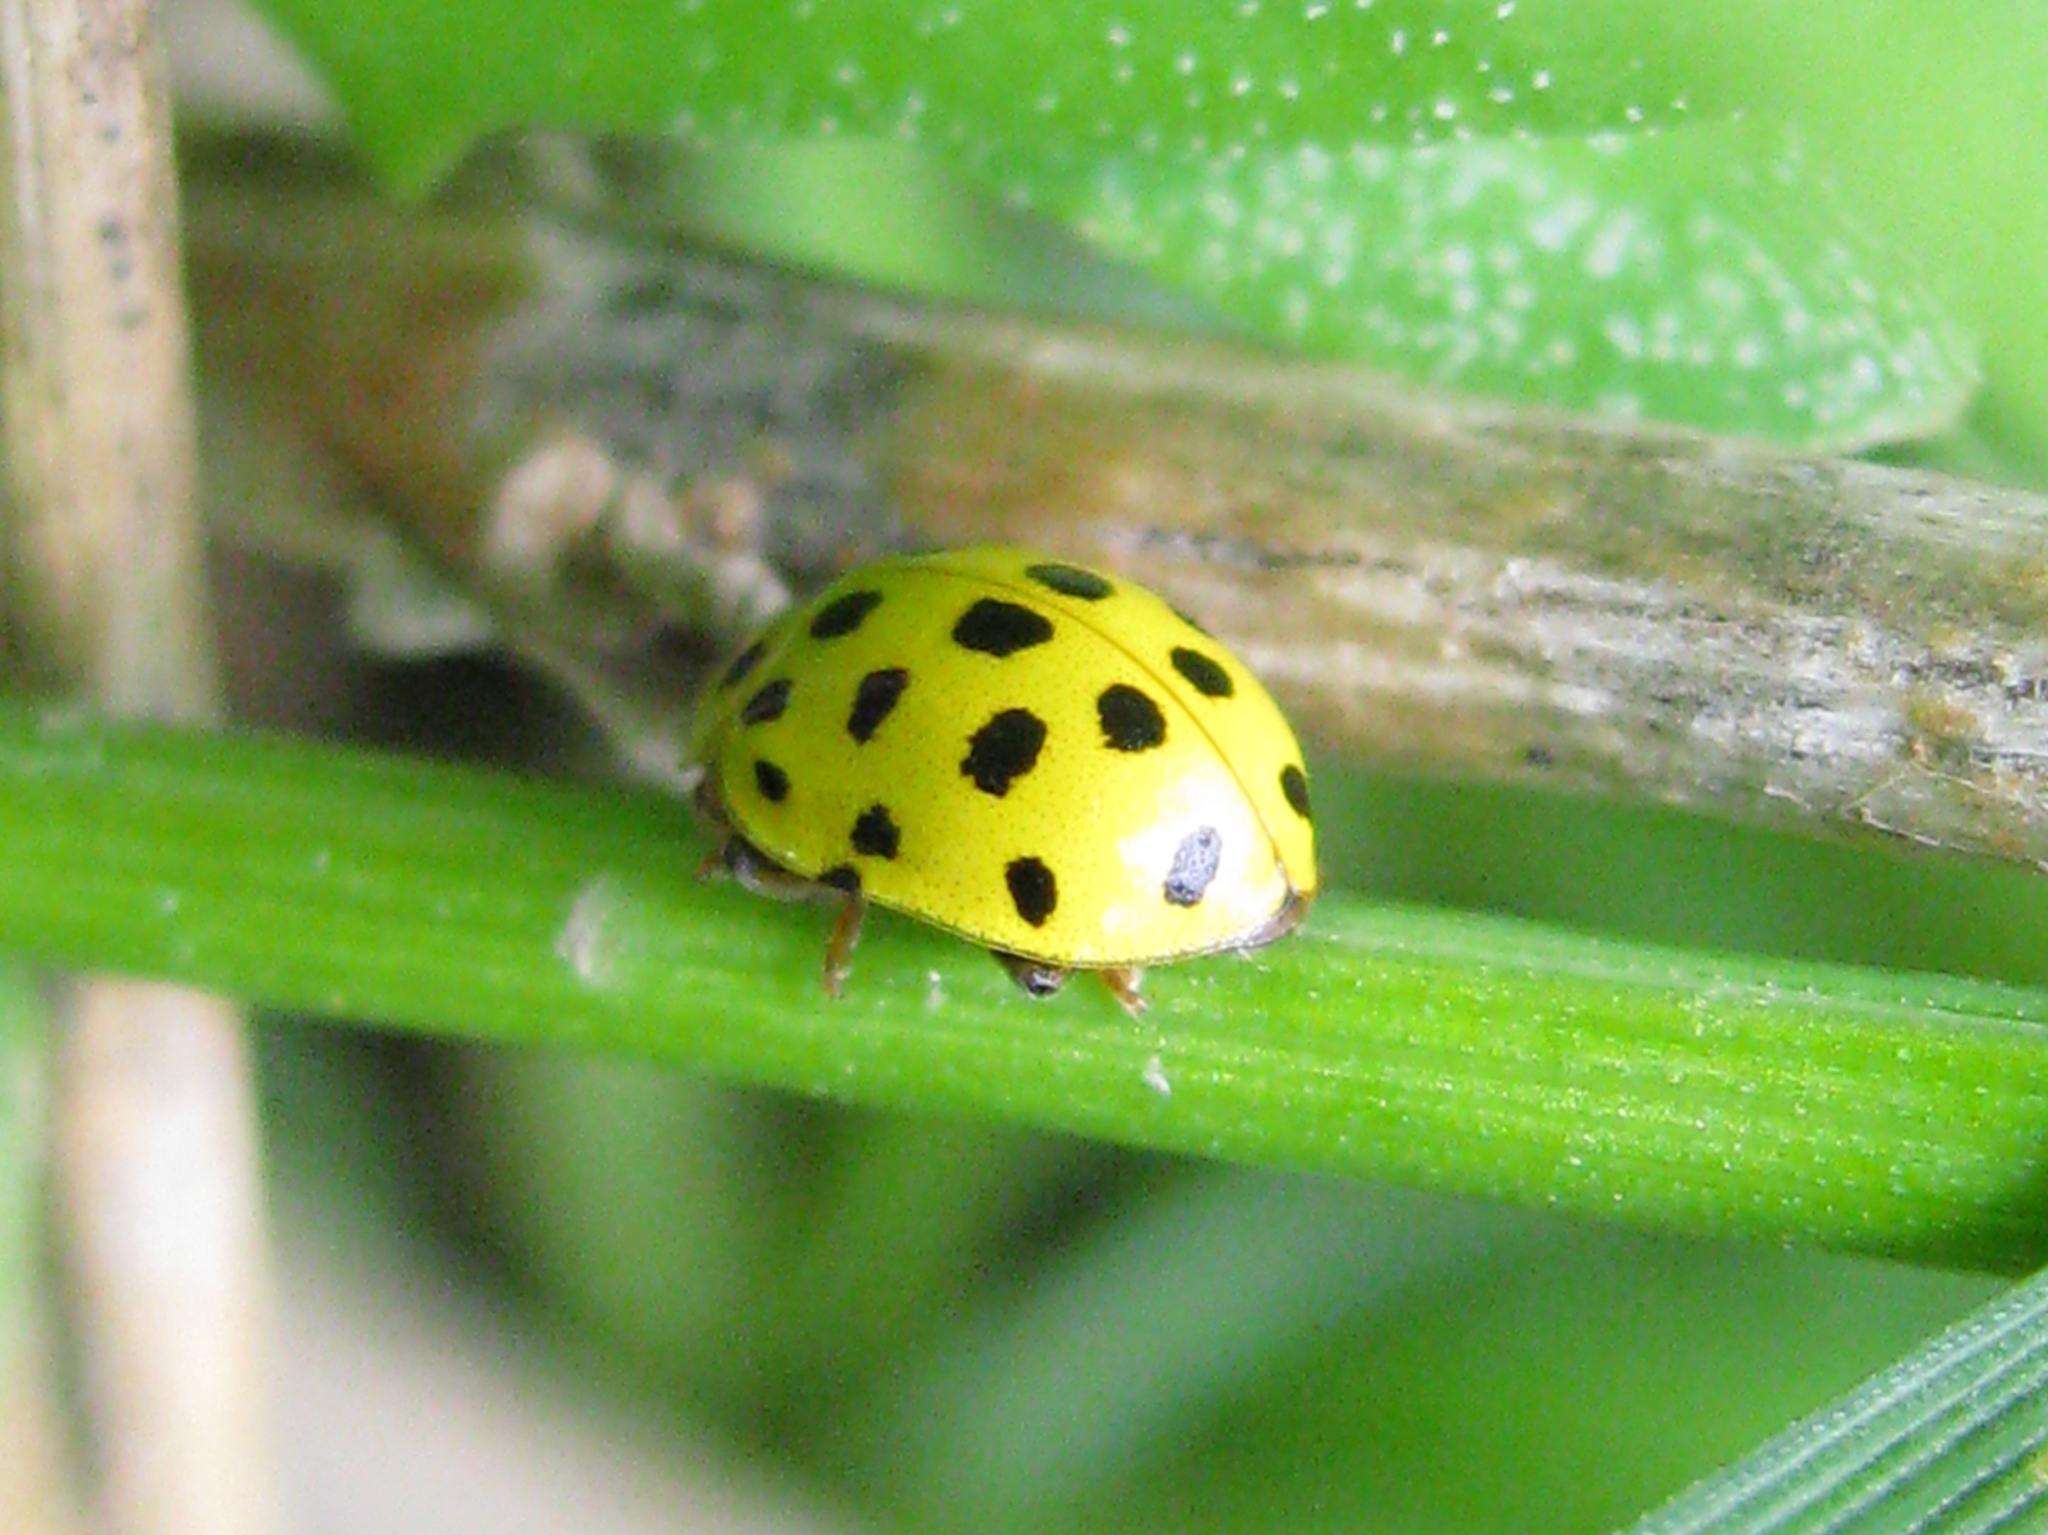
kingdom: Animalia
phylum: Arthropoda
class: Insecta
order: Coleoptera
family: Coccinellidae
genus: Psyllobora
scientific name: Psyllobora vigintiduopunctata
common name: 22-spot ladybird
